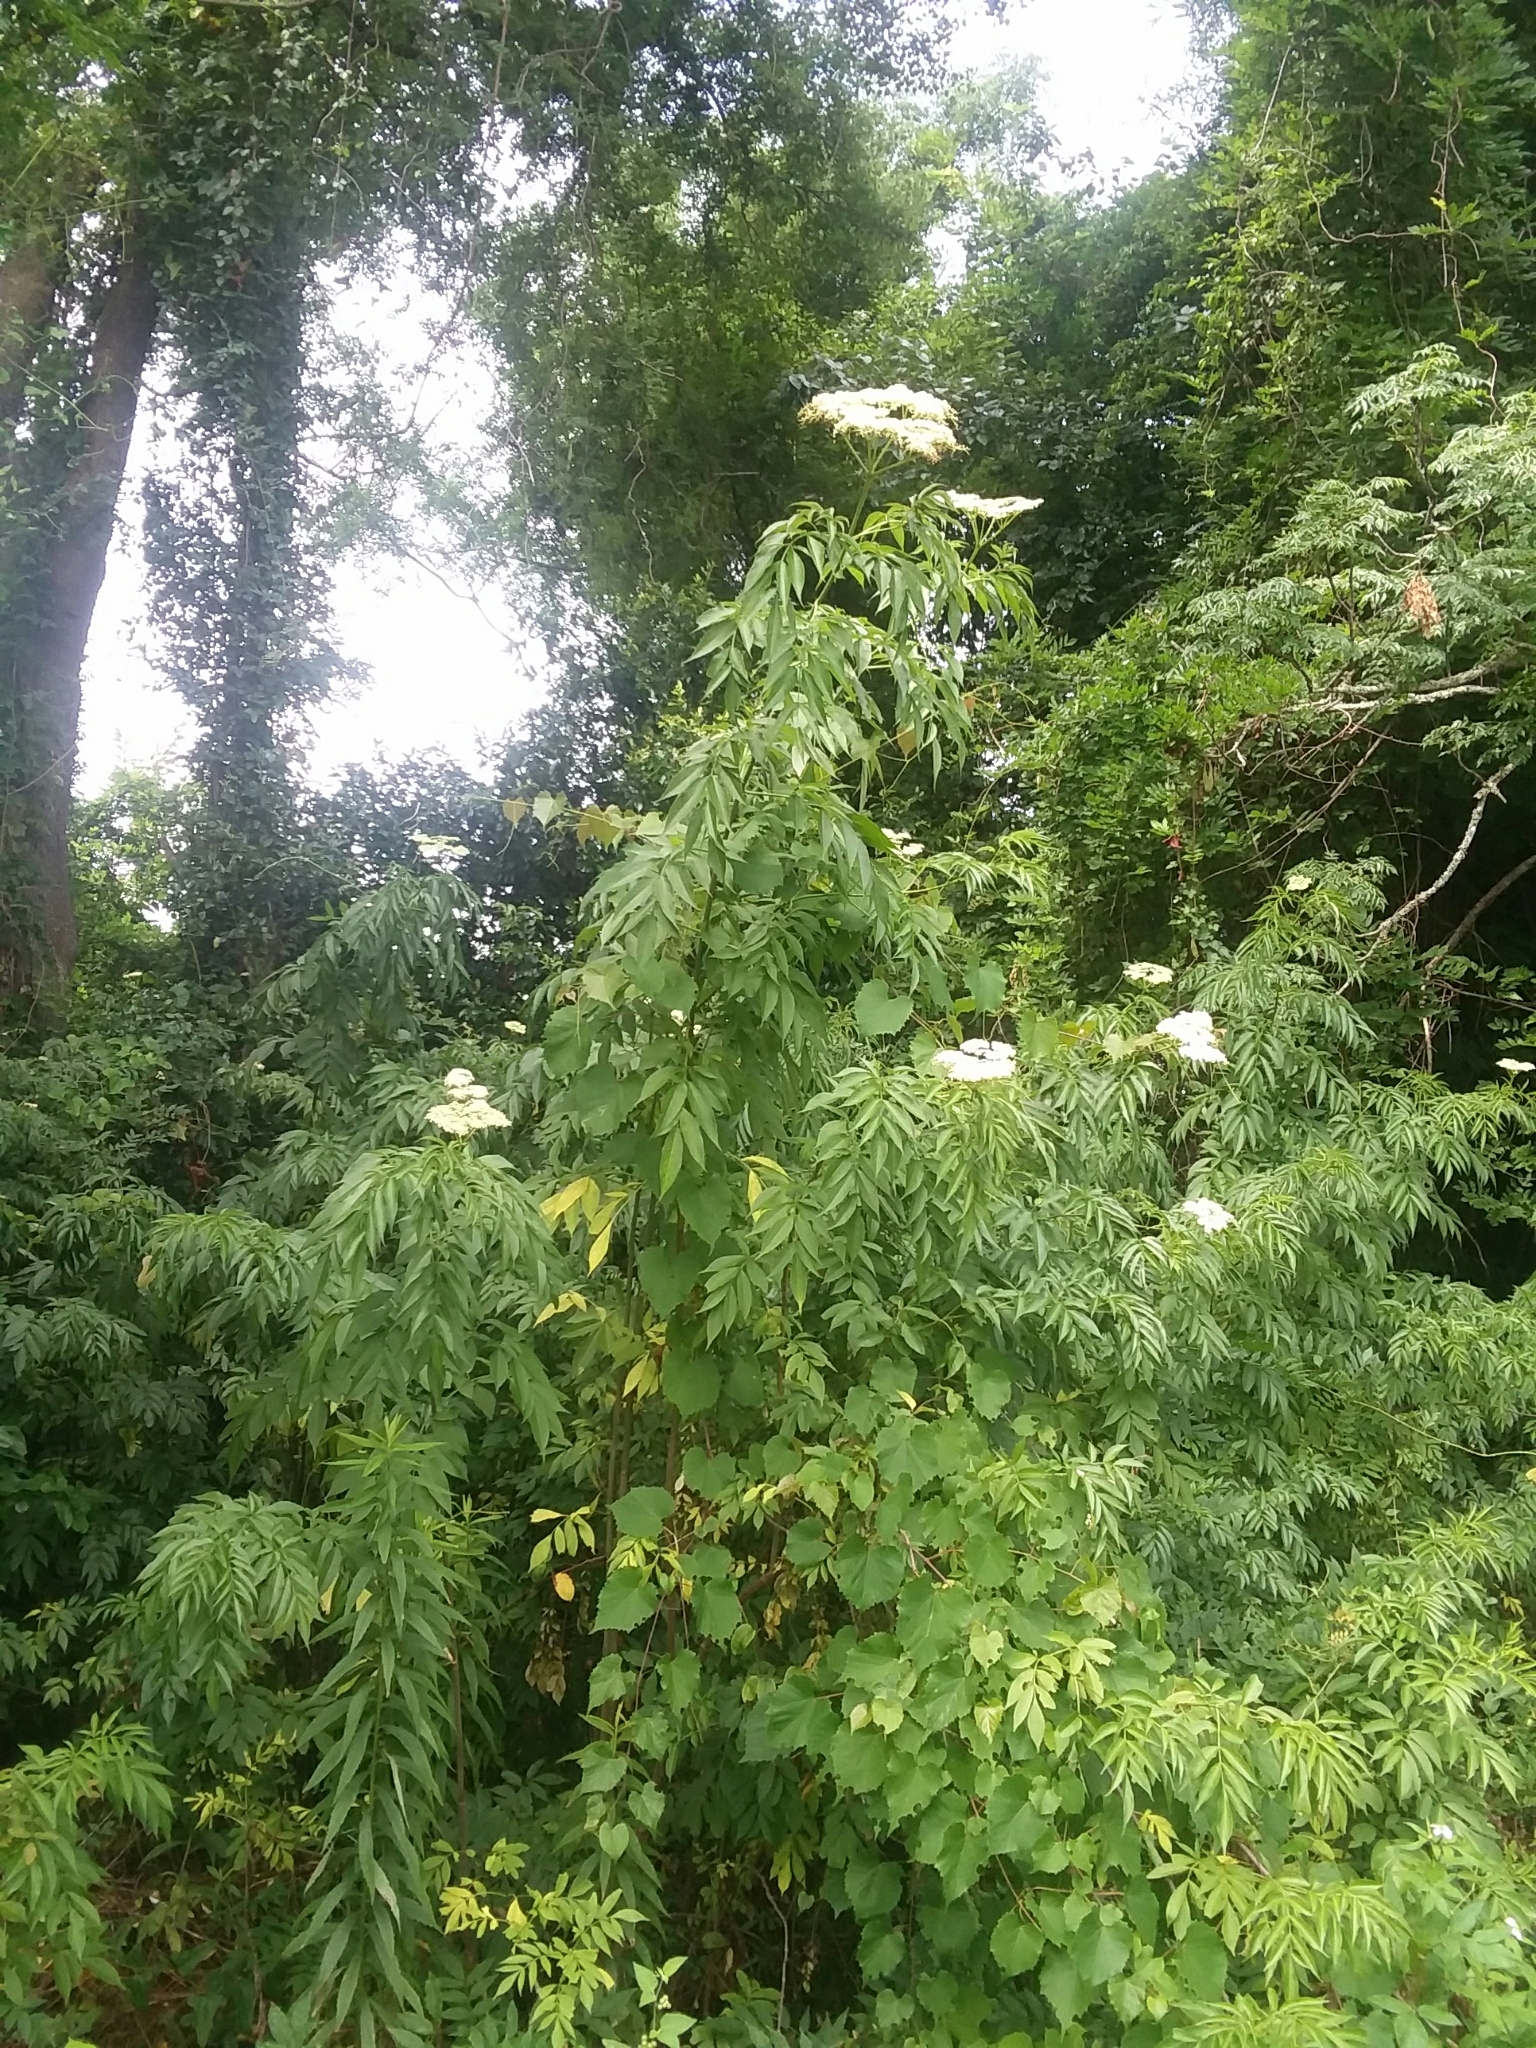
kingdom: Plantae
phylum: Tracheophyta
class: Magnoliopsida
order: Dipsacales
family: Viburnaceae
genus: Sambucus
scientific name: Sambucus canadensis
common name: American elder
